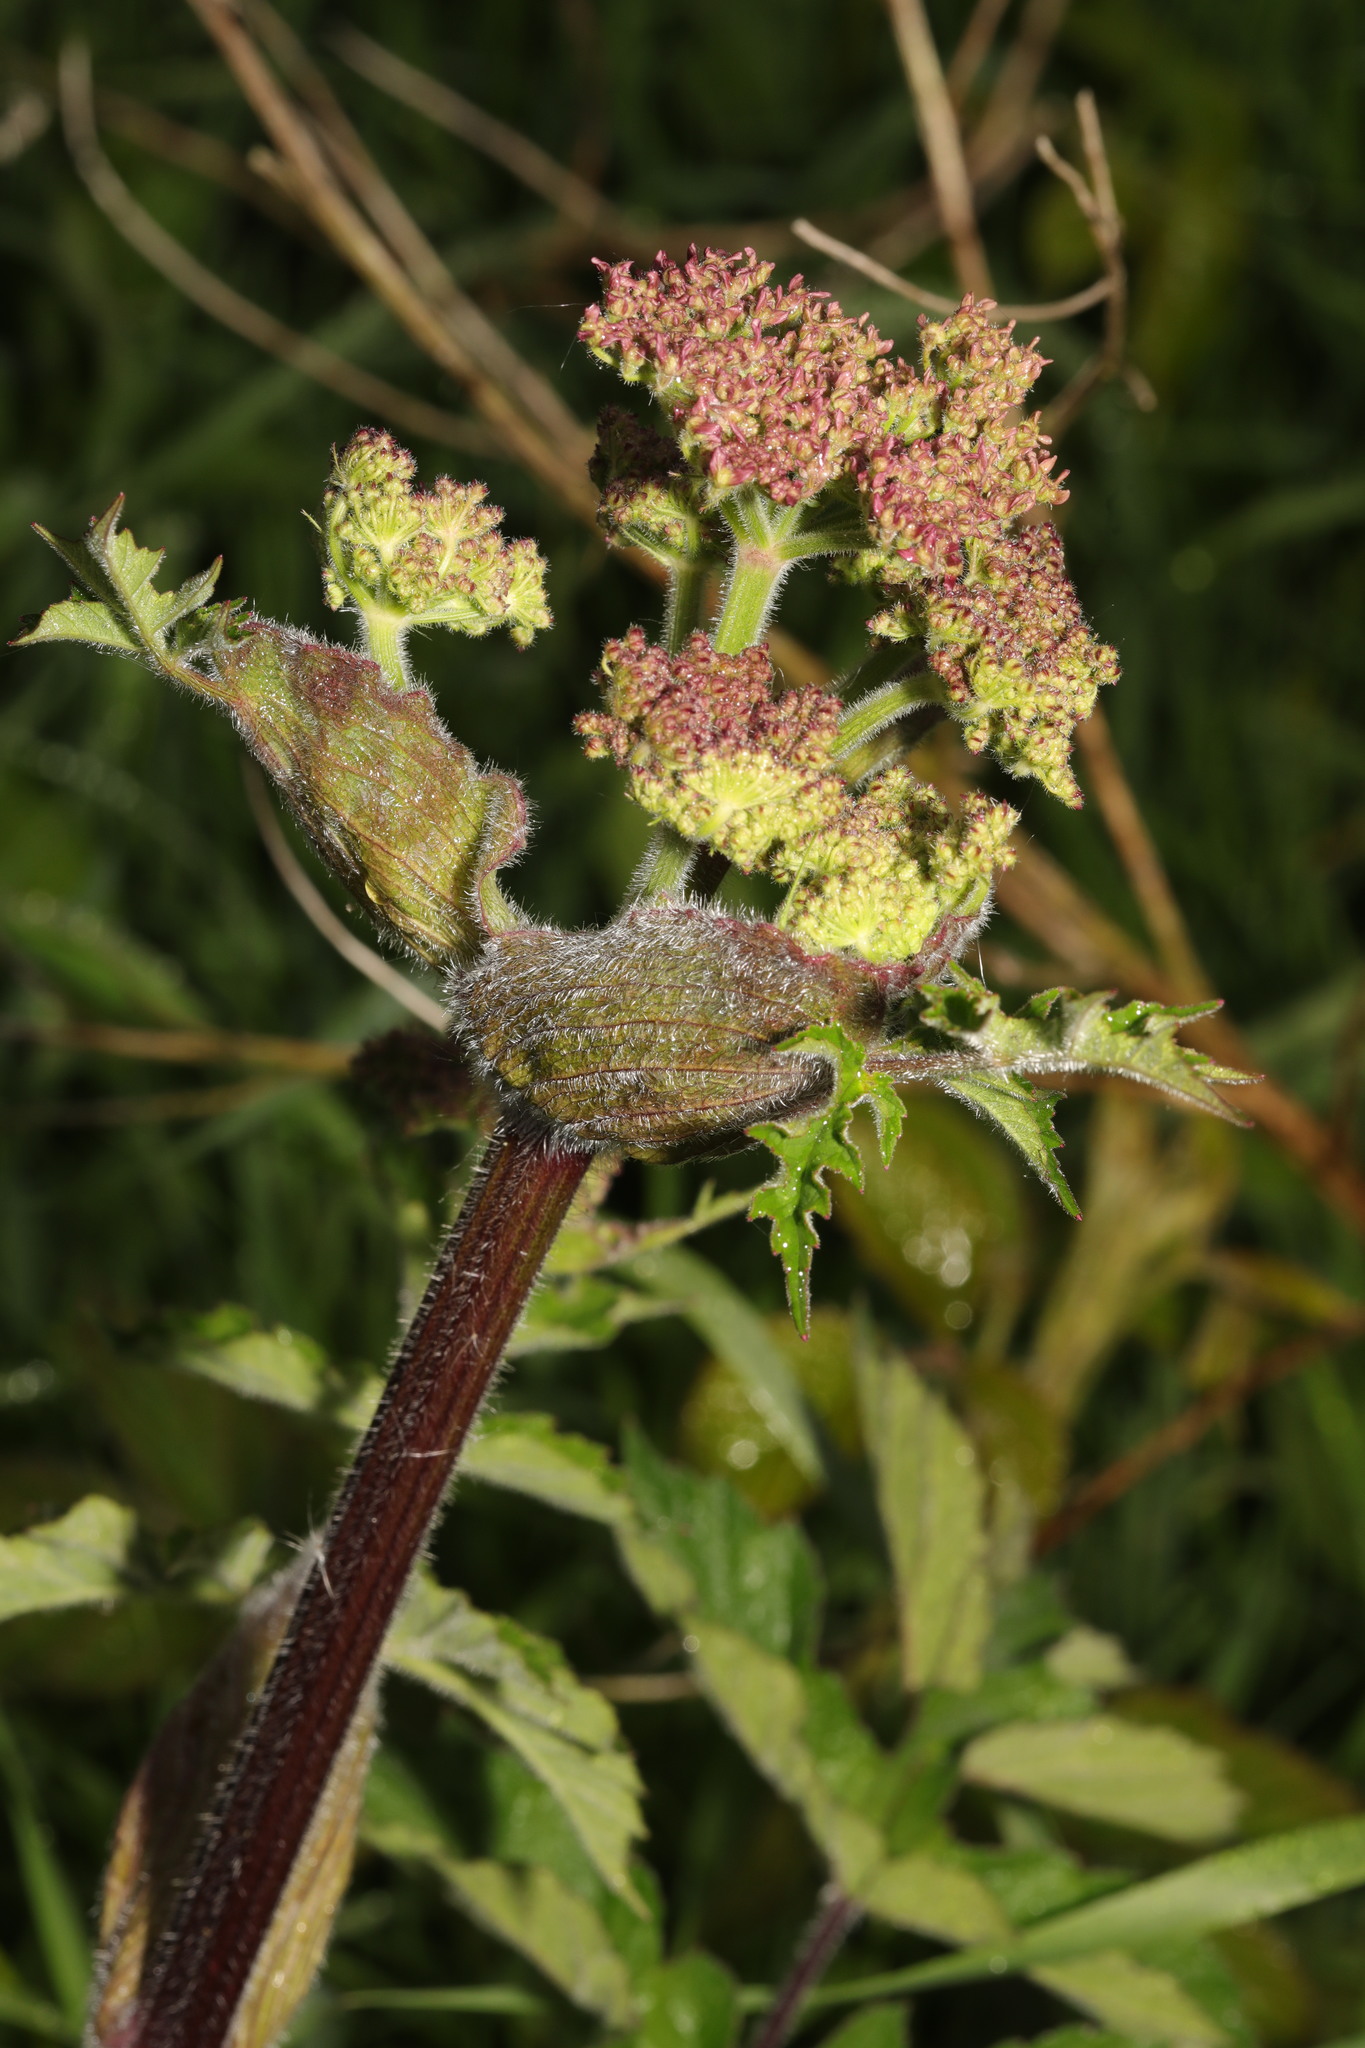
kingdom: Plantae
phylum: Tracheophyta
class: Magnoliopsida
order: Apiales
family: Apiaceae
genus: Heracleum
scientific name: Heracleum sphondylium
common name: Hogweed
